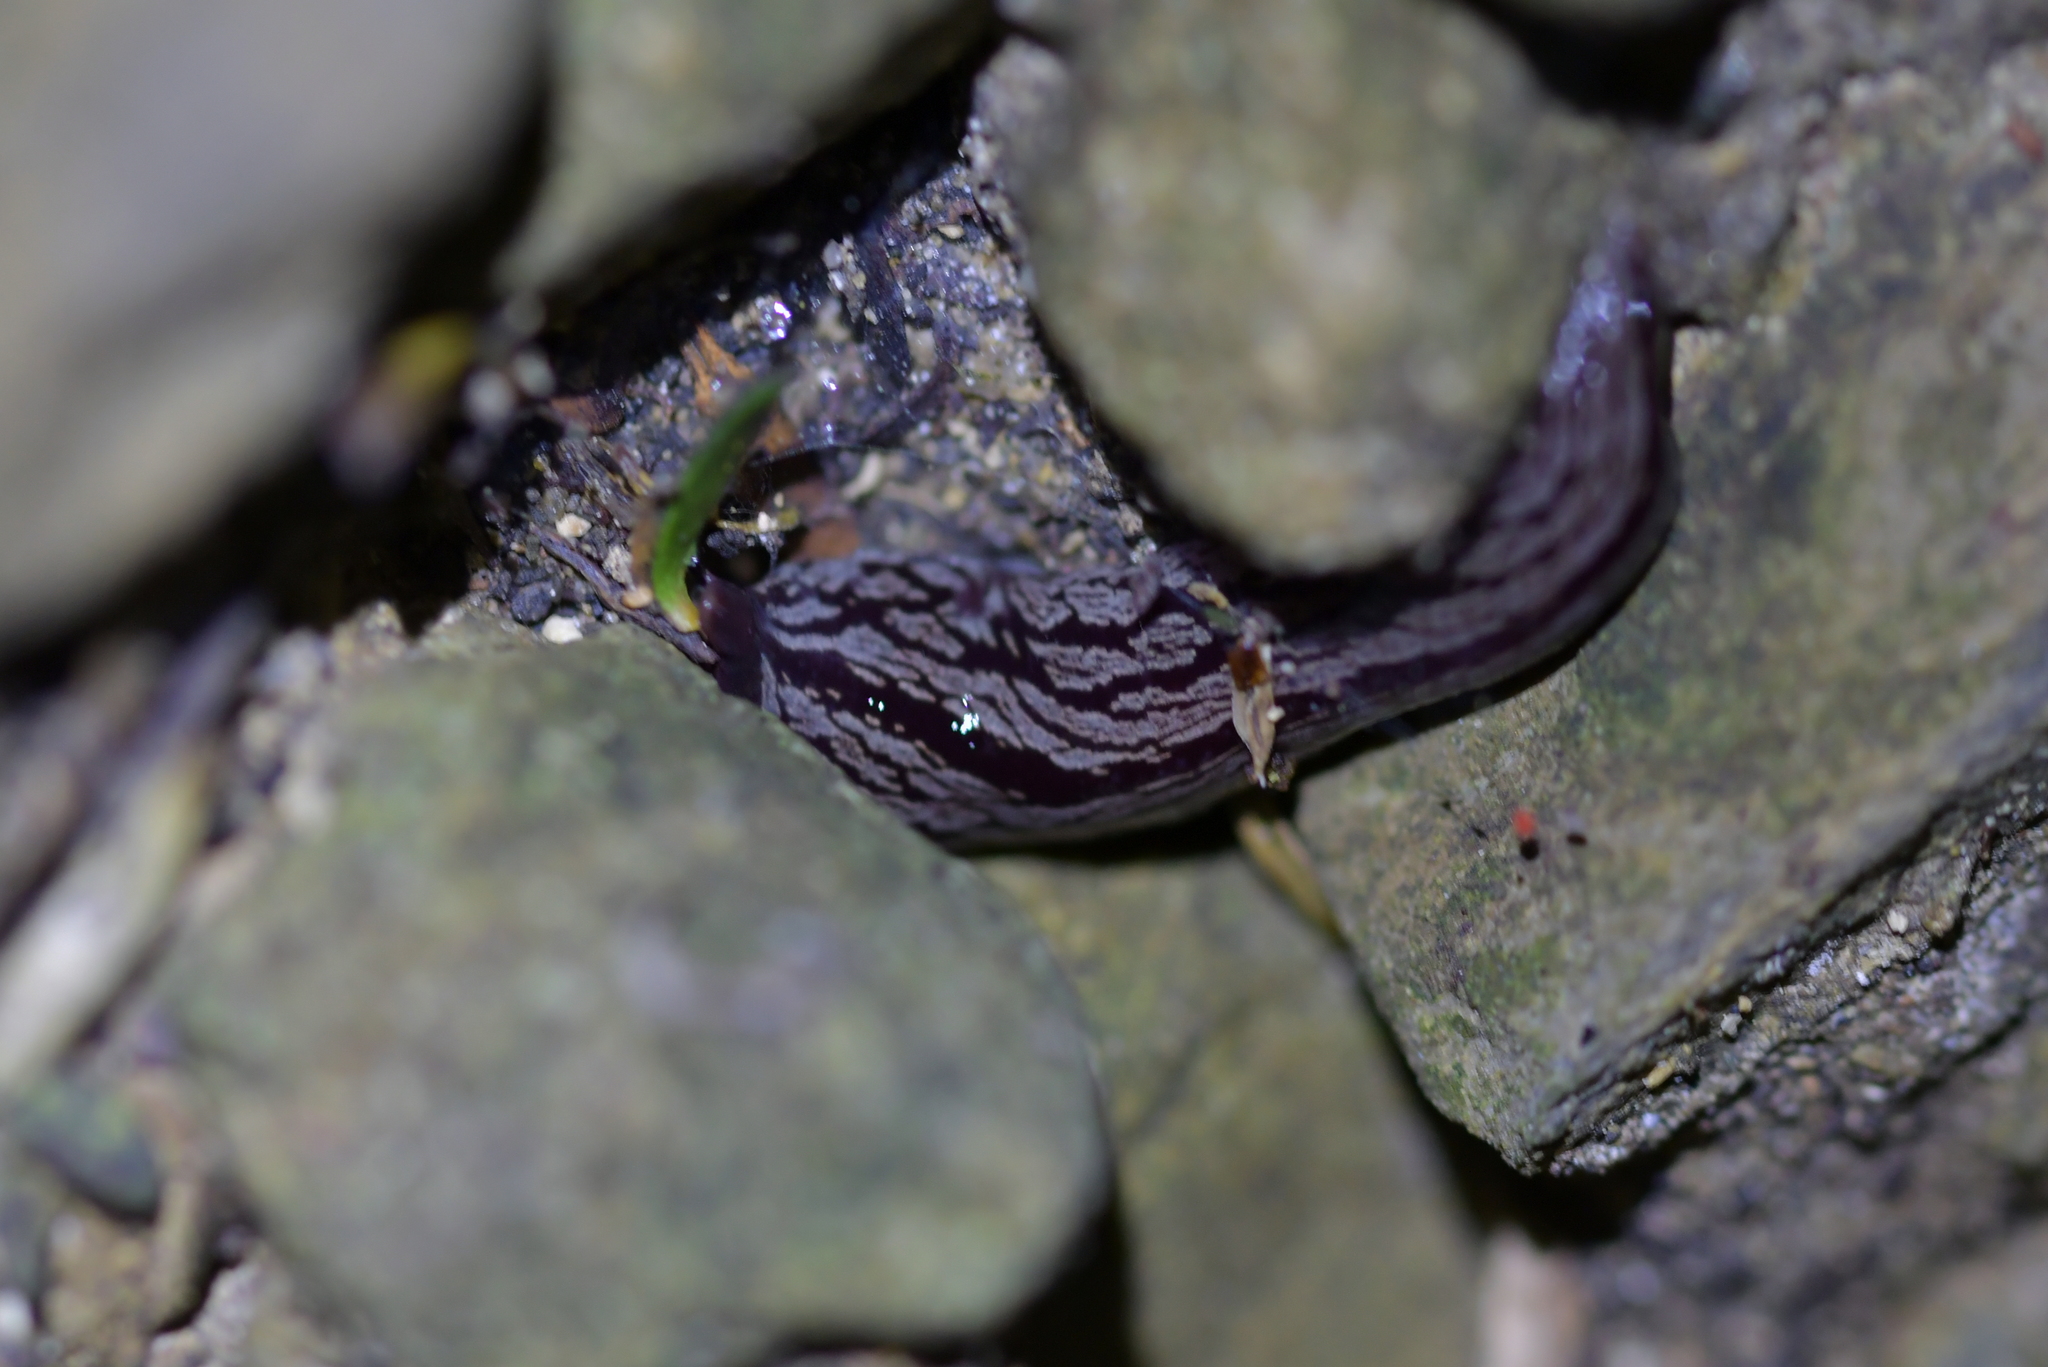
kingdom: Animalia
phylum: Platyhelminthes
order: Tricladida
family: Geoplanidae
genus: Artioposthia
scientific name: Artioposthia exulans
